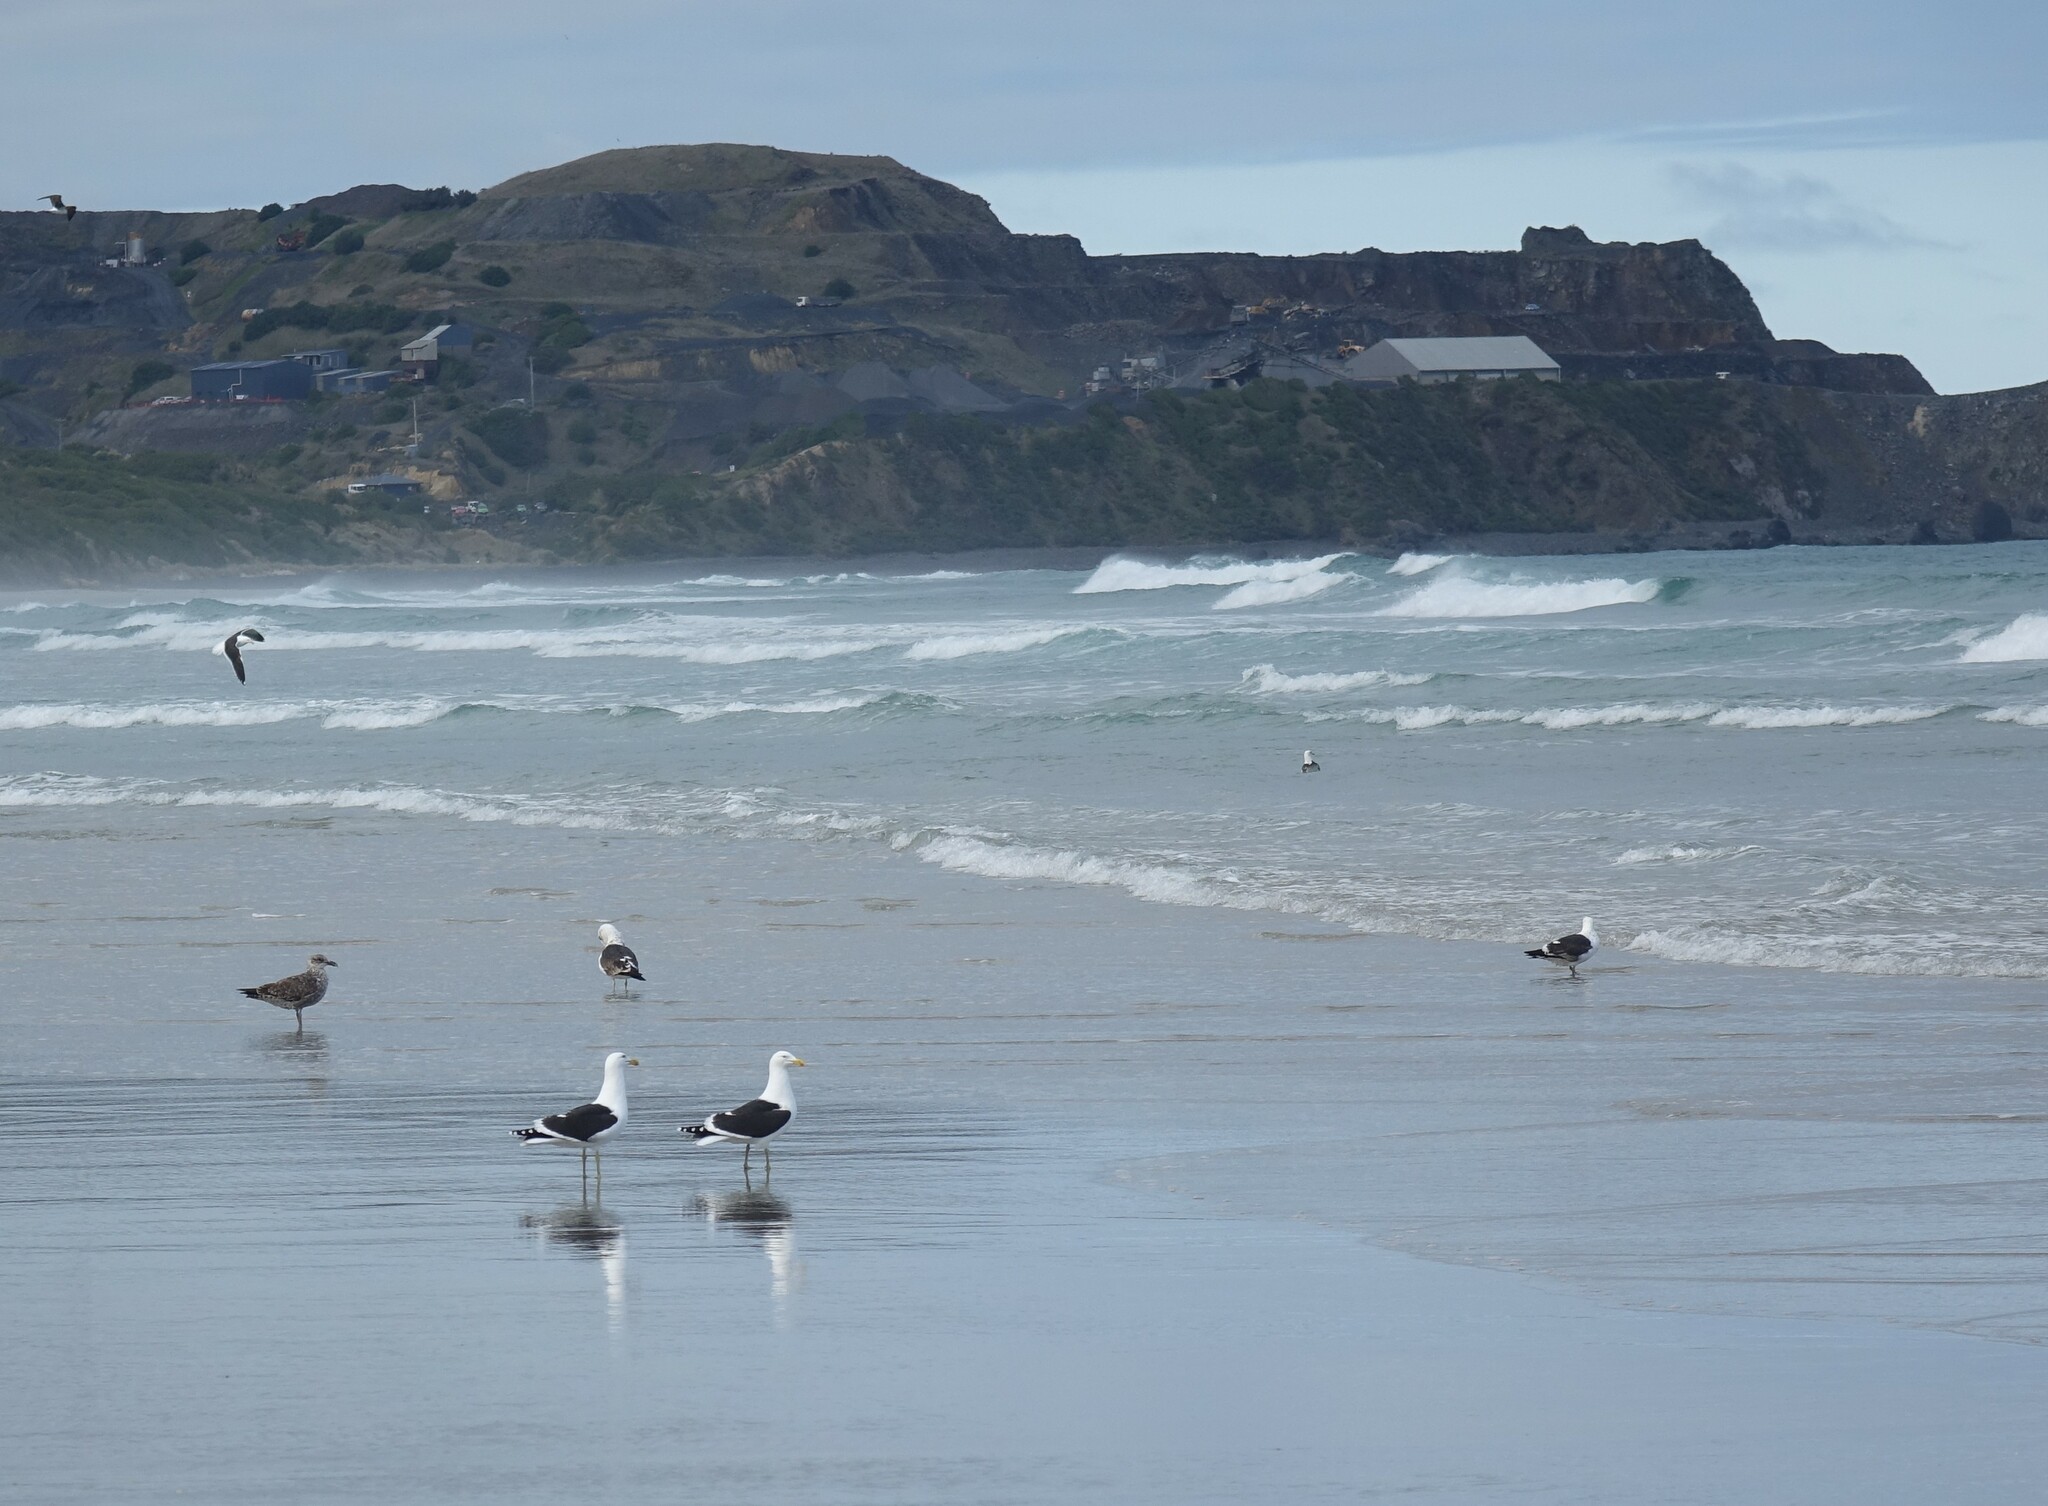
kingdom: Animalia
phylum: Chordata
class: Aves
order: Charadriiformes
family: Laridae
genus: Larus
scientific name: Larus dominicanus
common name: Kelp gull
